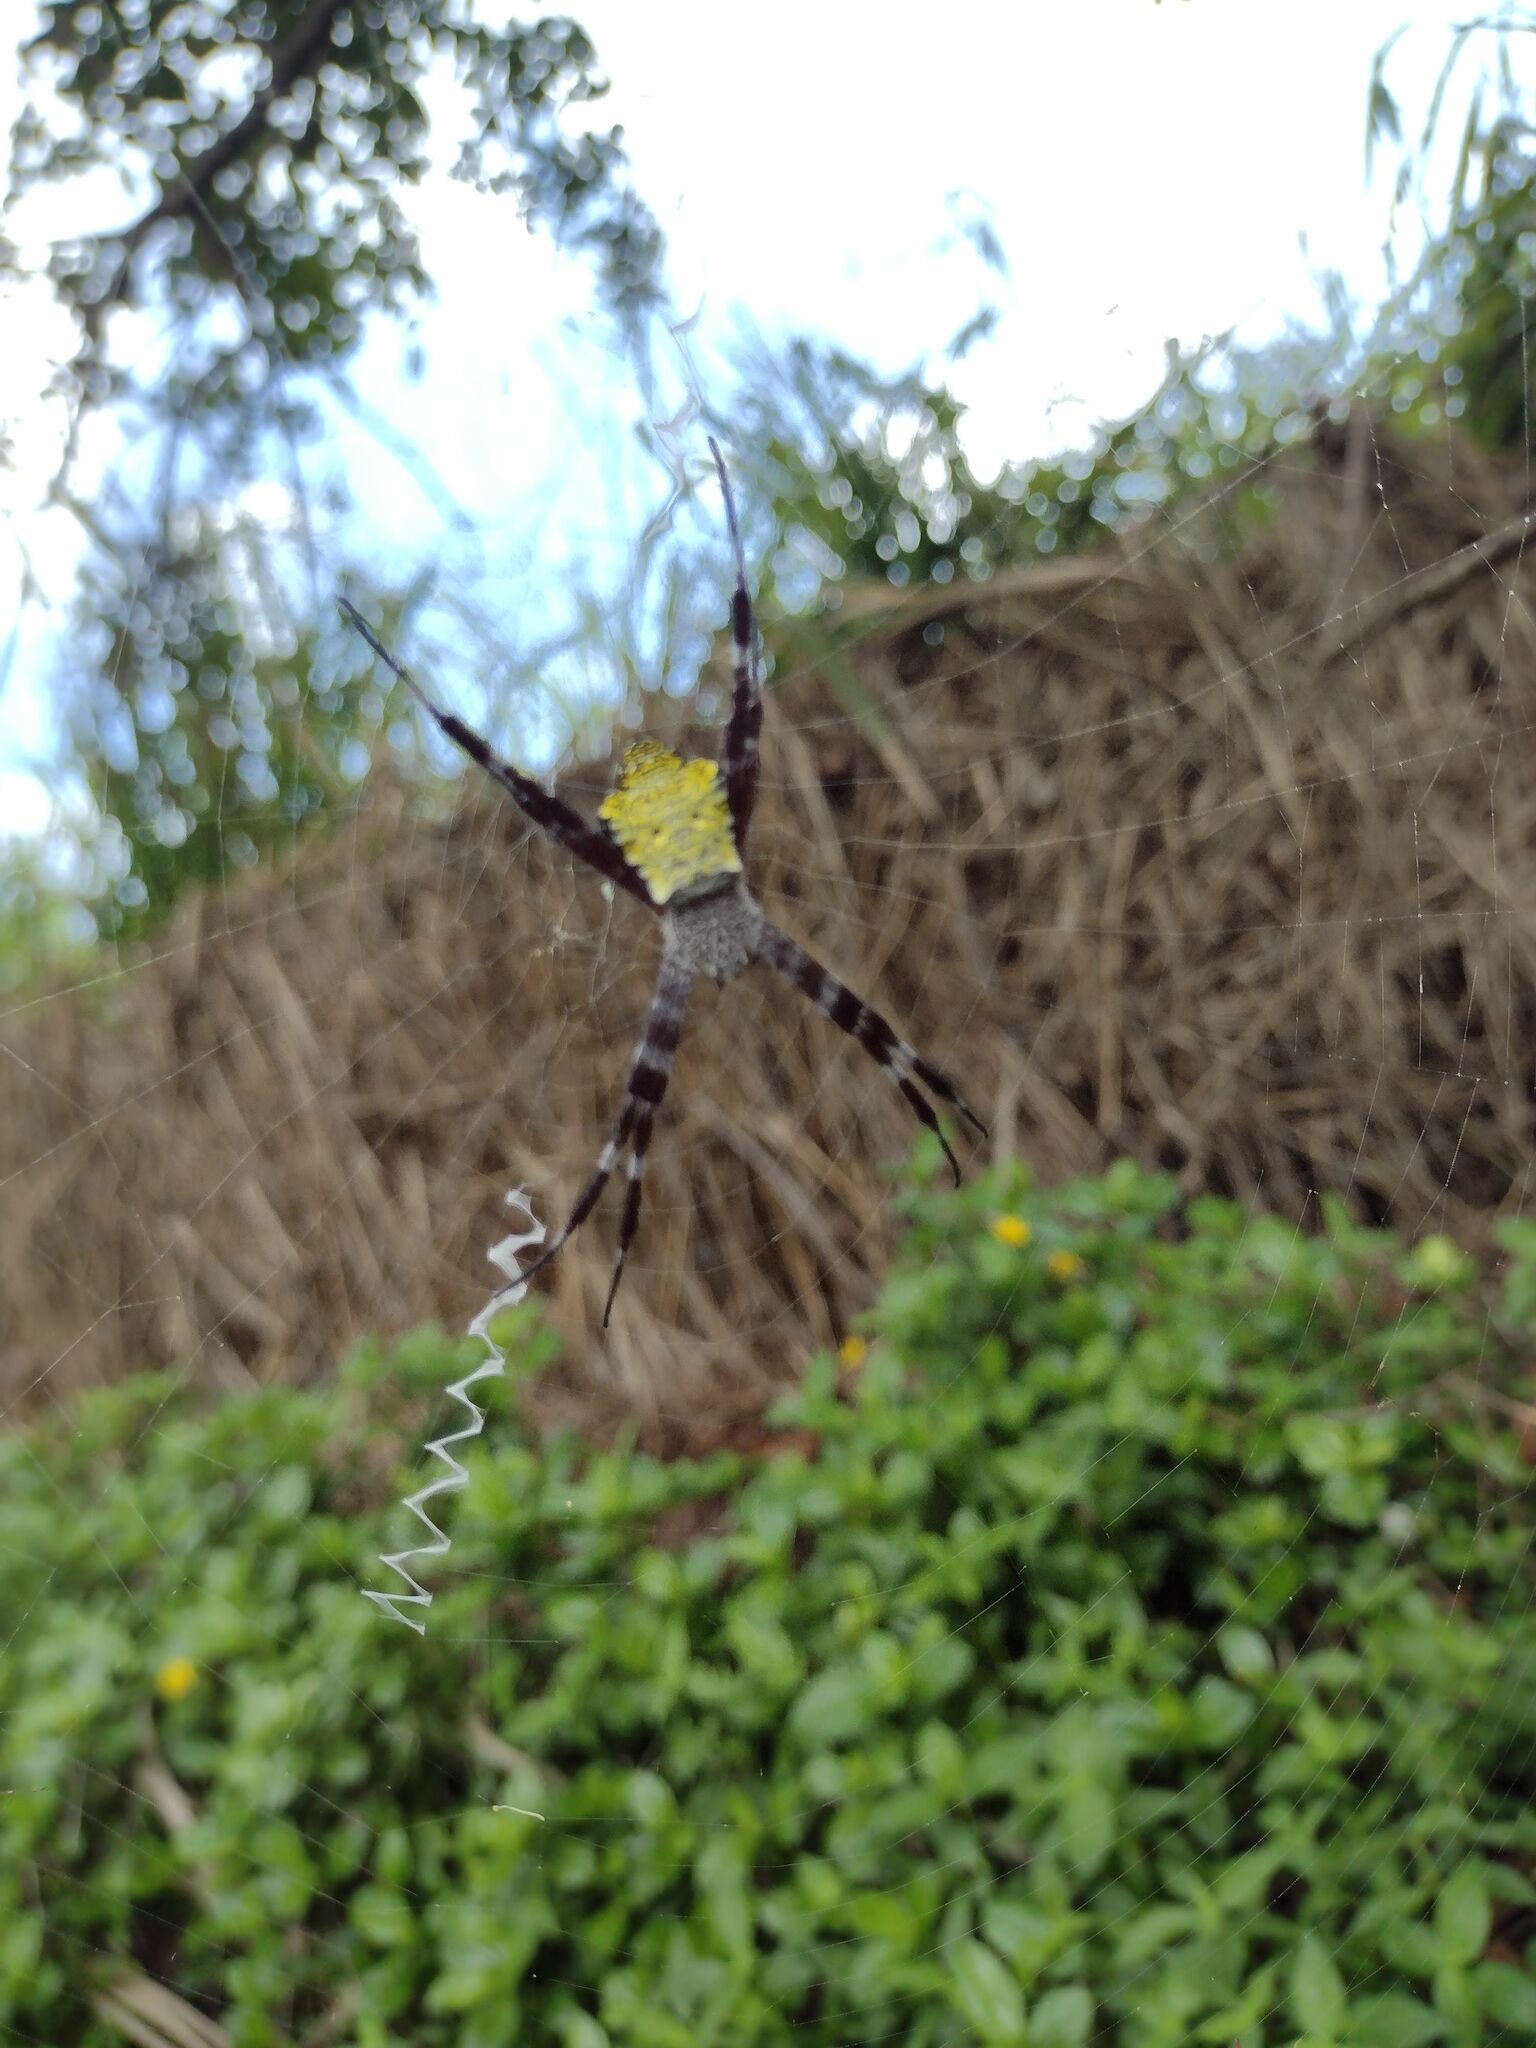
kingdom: Animalia
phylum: Arthropoda
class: Arachnida
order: Araneae
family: Araneidae
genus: Argiope
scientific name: Argiope appensa
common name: Garden spider
